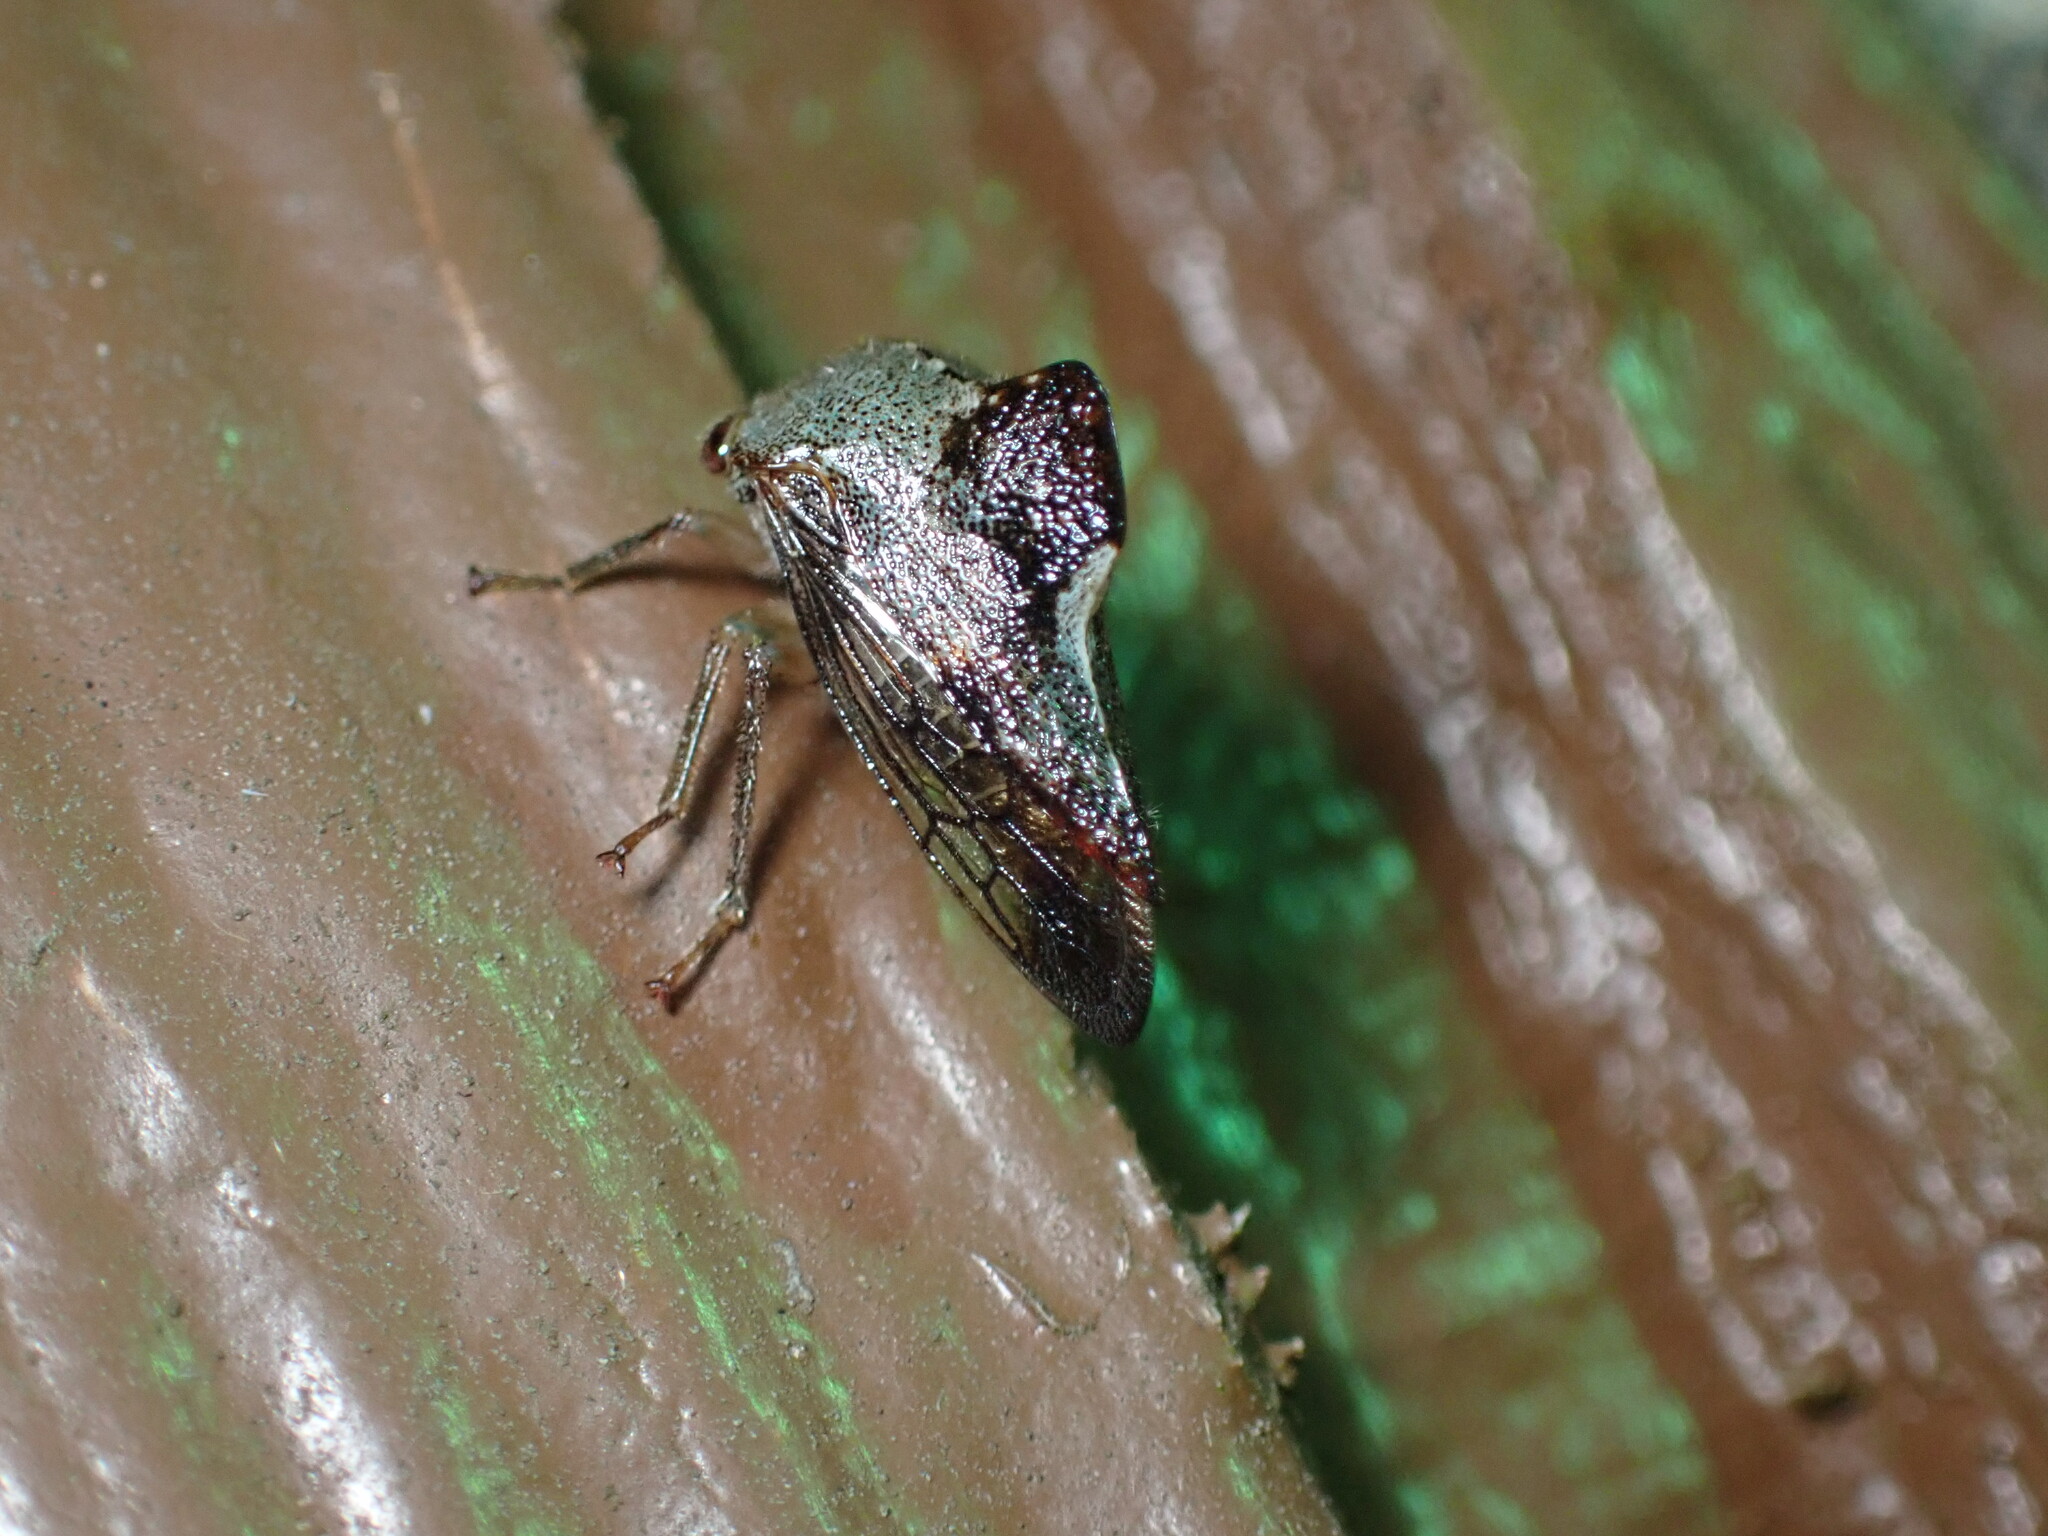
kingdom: Animalia
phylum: Arthropoda
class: Insecta
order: Hemiptera
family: Membracidae
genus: Telamona
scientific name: Telamona decorata
